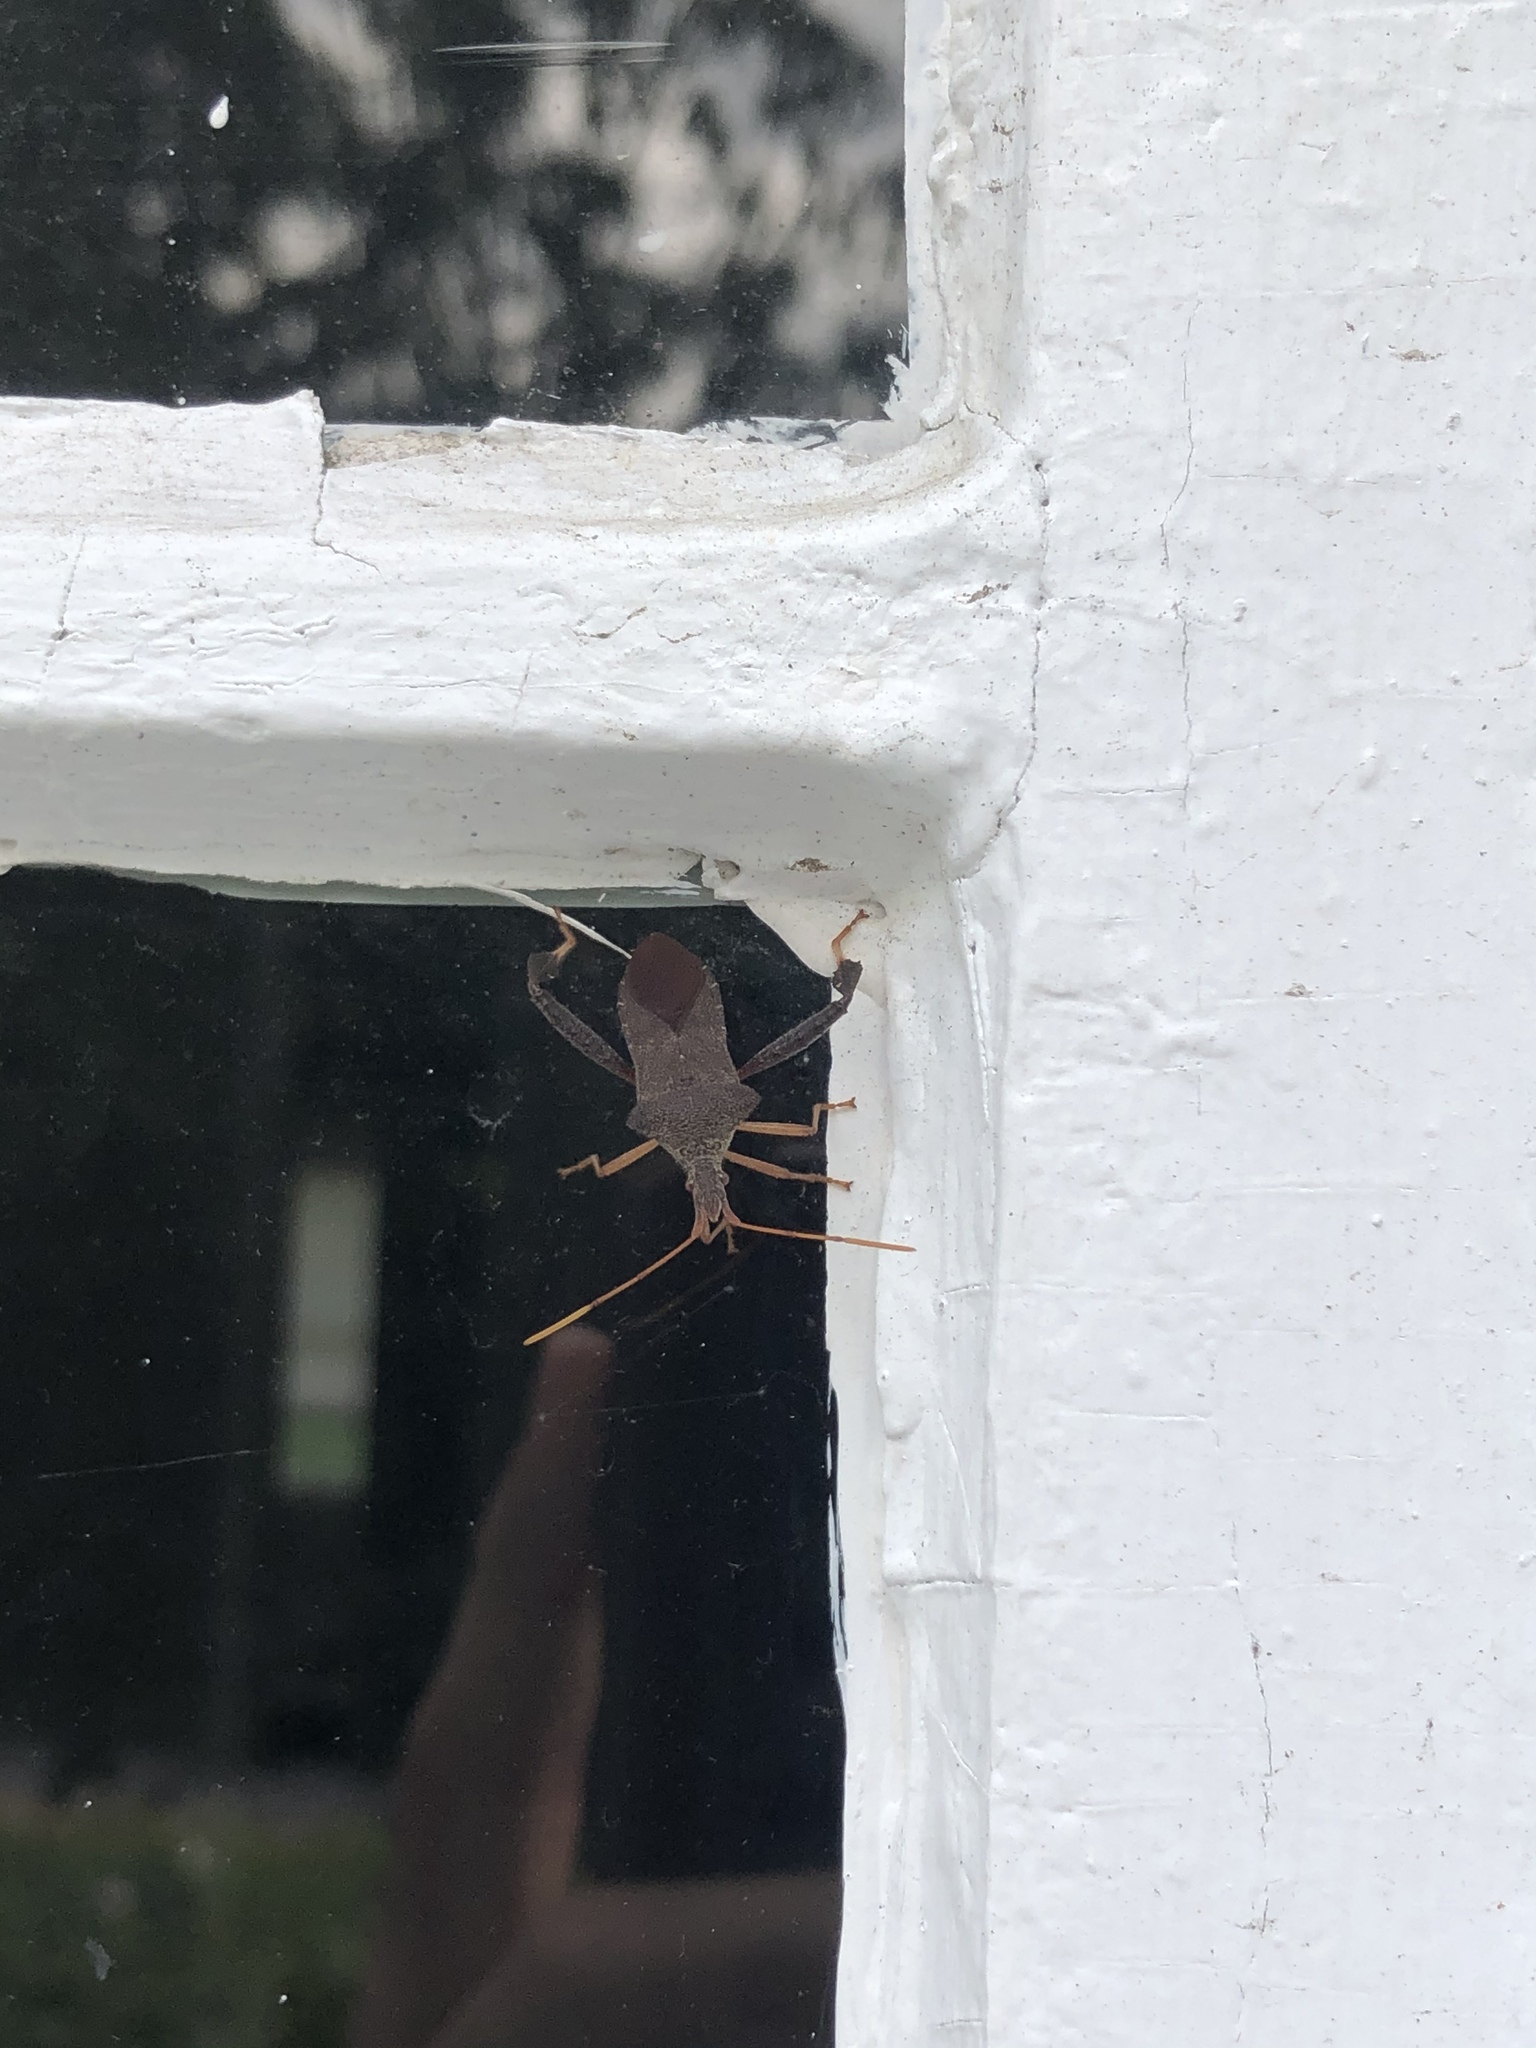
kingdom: Animalia
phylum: Arthropoda
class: Insecta
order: Hemiptera
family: Coreidae
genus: Leptoglossus
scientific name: Leptoglossus fulvicornis
